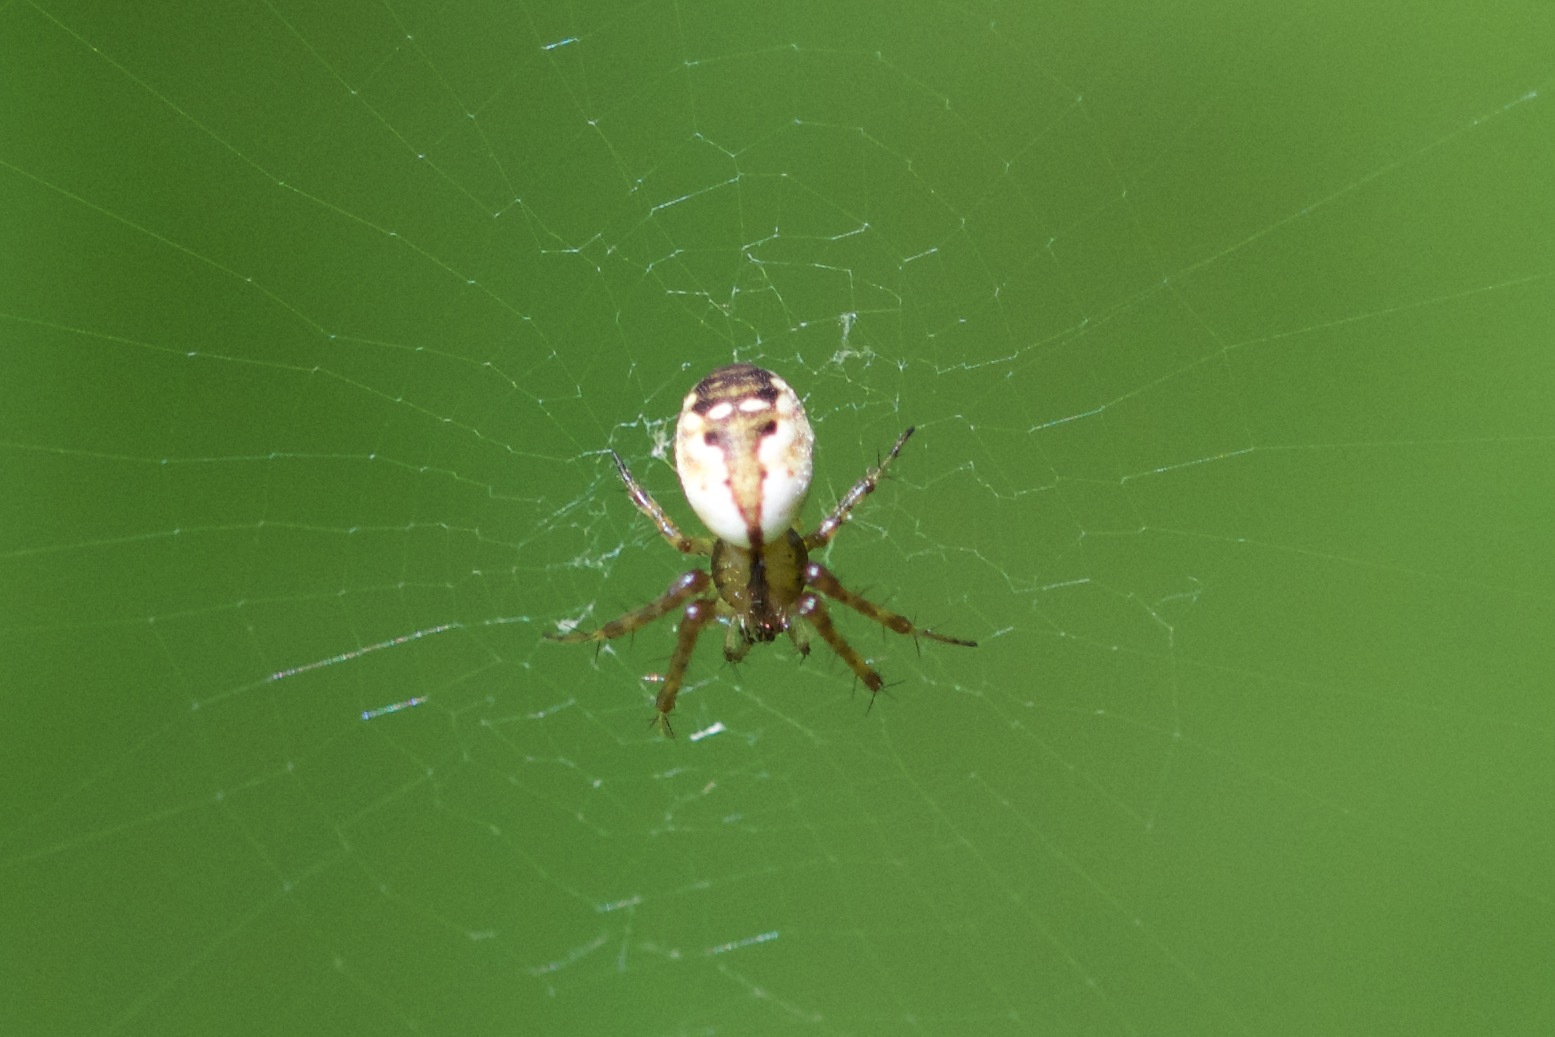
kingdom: Animalia
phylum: Arthropoda
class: Arachnida
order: Araneae
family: Araneidae
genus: Mangora
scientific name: Mangora placida
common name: Tuft-legged orbweaver
